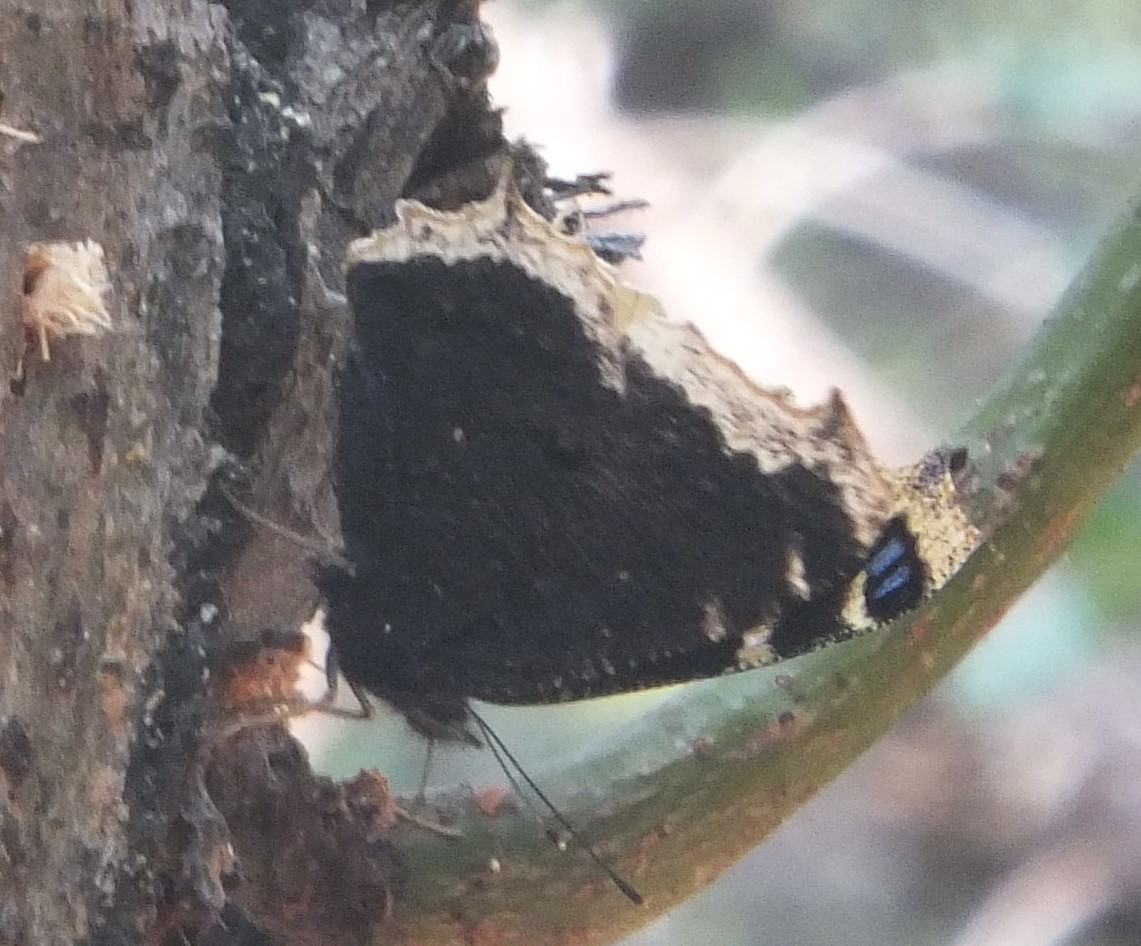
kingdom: Animalia
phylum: Arthropoda
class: Insecta
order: Lepidoptera
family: Nymphalidae
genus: Nymphalis
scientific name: Nymphalis antiopa
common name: Camberwell beauty
